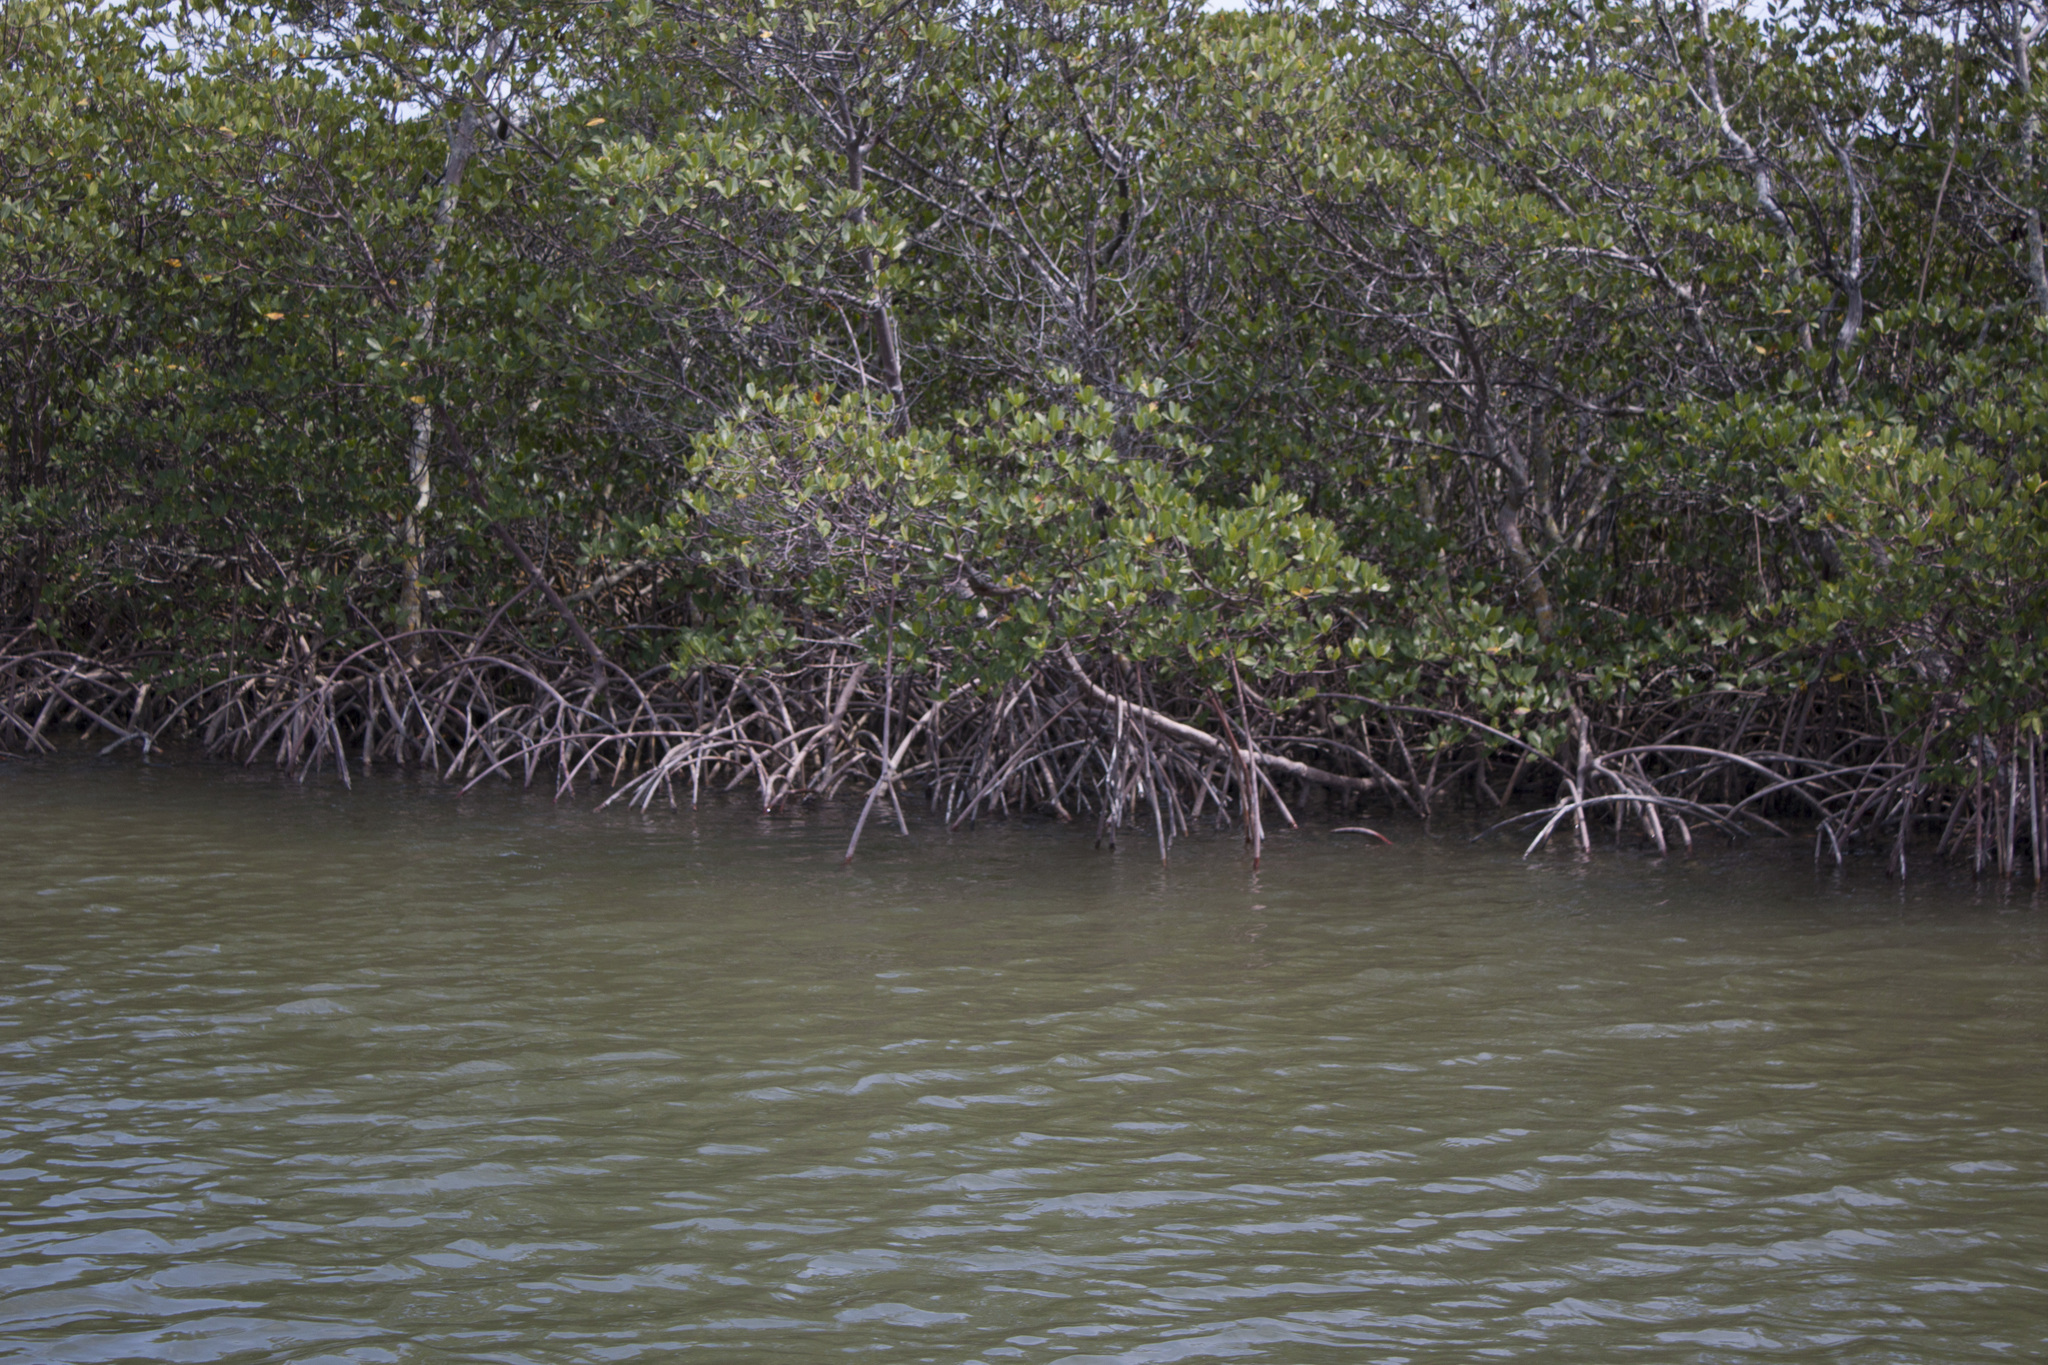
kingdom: Plantae
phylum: Tracheophyta
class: Magnoliopsida
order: Malpighiales
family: Rhizophoraceae
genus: Rhizophora
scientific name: Rhizophora mangle
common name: Red mangrove
